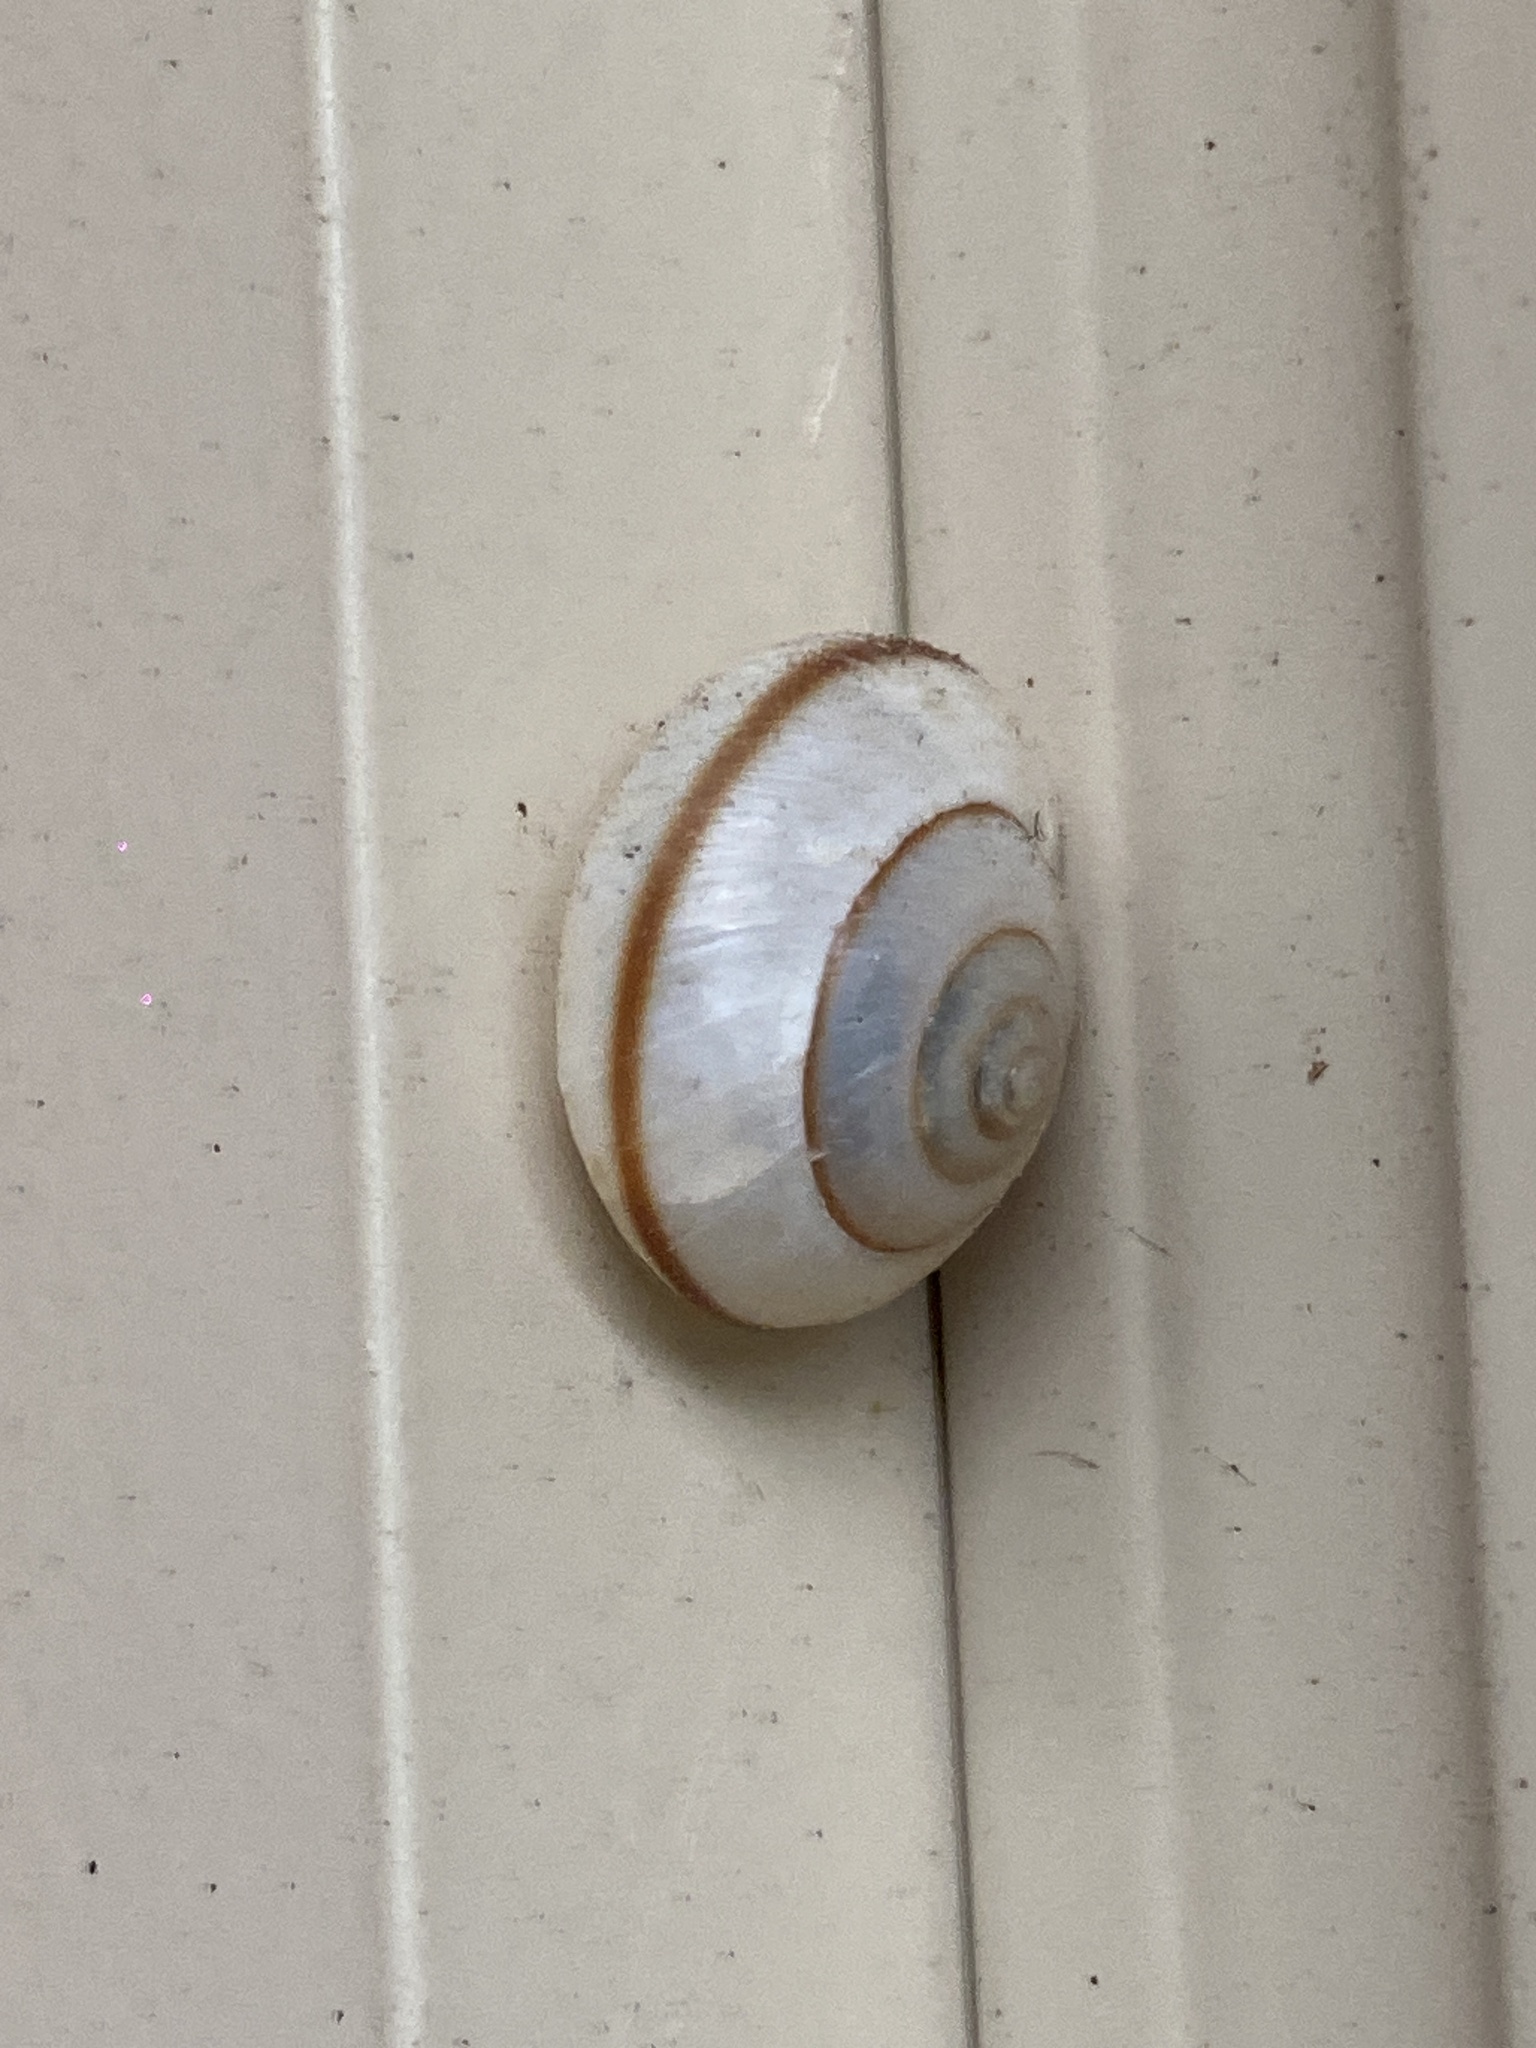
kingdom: Animalia
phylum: Mollusca
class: Gastropoda
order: Stylommatophora
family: Camaenidae
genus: Bradybaena
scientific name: Bradybaena similaris
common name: Asian trampsnail
